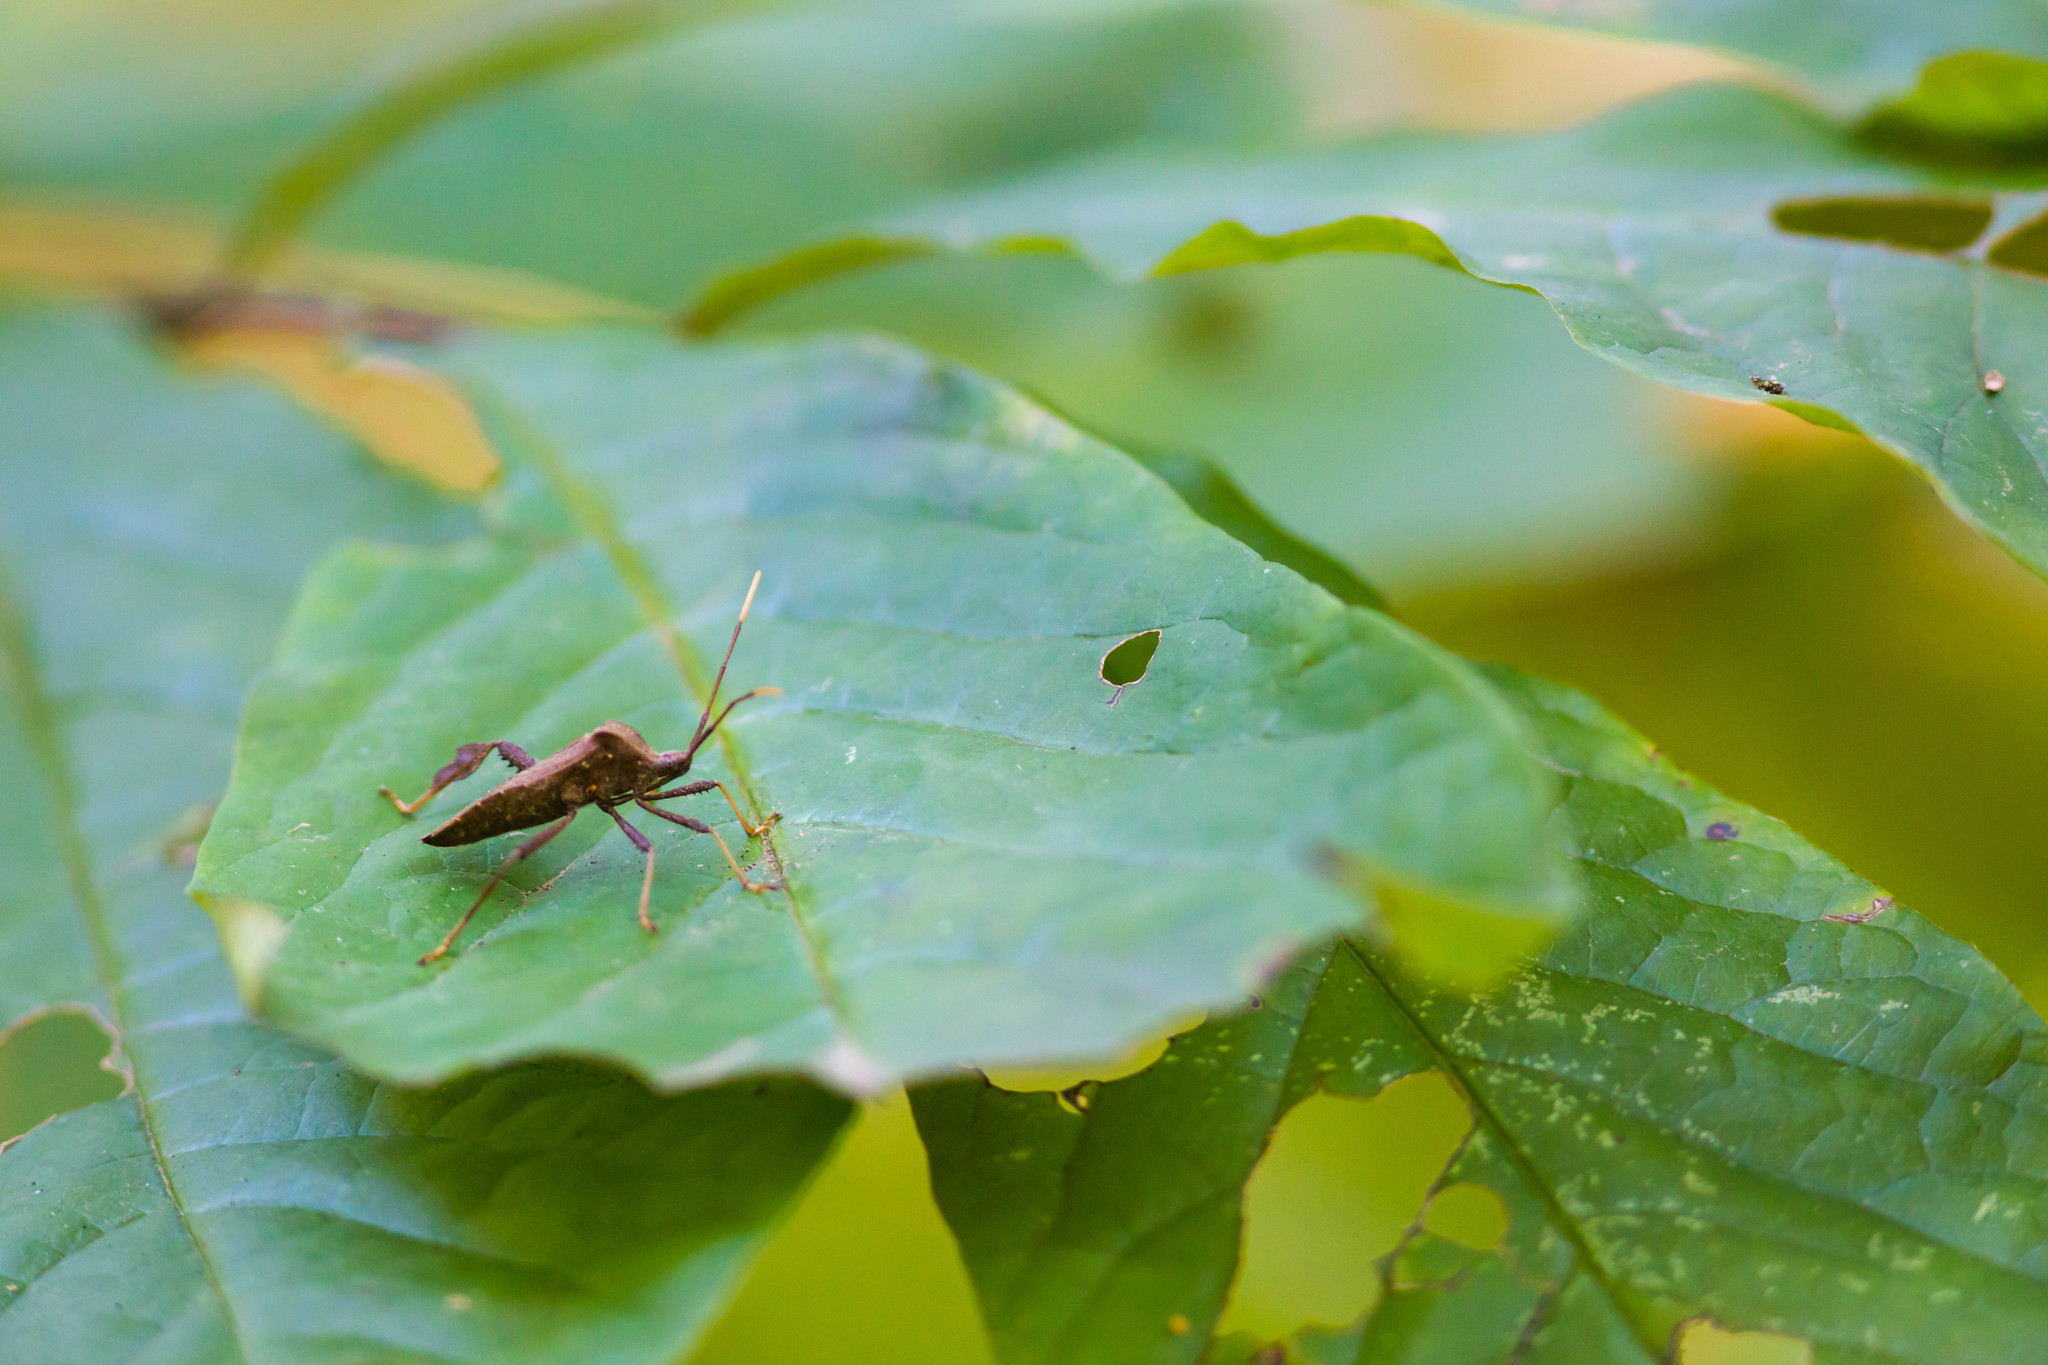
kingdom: Animalia
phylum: Arthropoda
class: Insecta
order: Hemiptera
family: Coreidae
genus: Acanthocephala
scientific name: Acanthocephala terminalis
